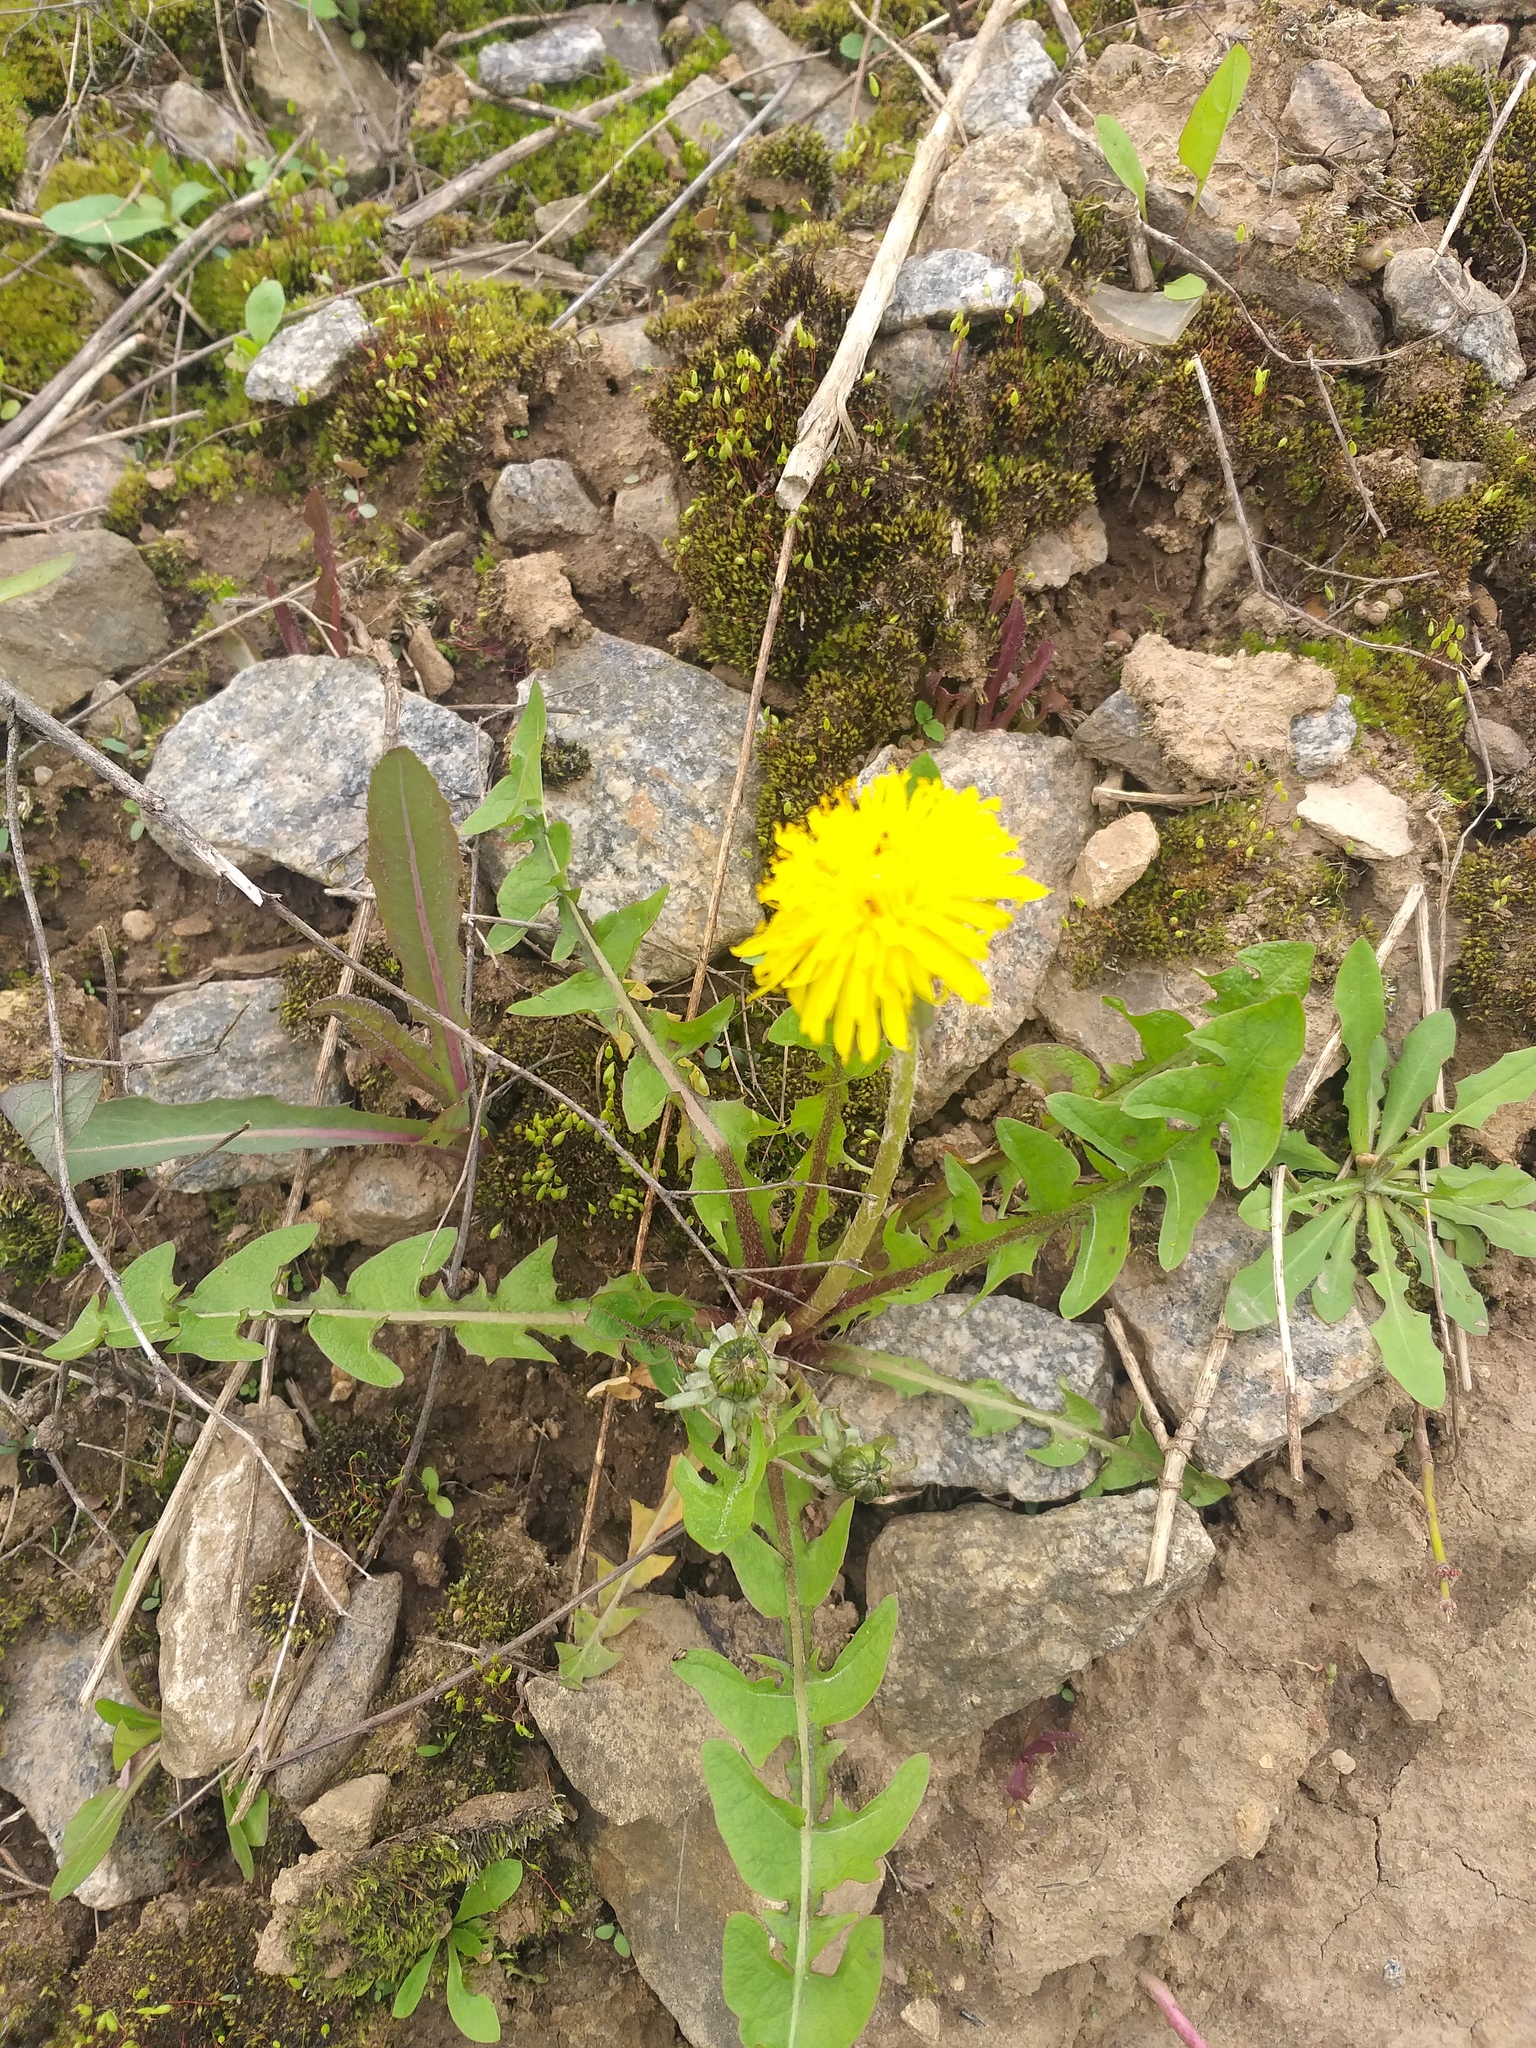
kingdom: Plantae
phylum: Tracheophyta
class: Magnoliopsida
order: Asterales
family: Asteraceae
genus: Taraxacum
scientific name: Taraxacum officinale
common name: Common dandelion
